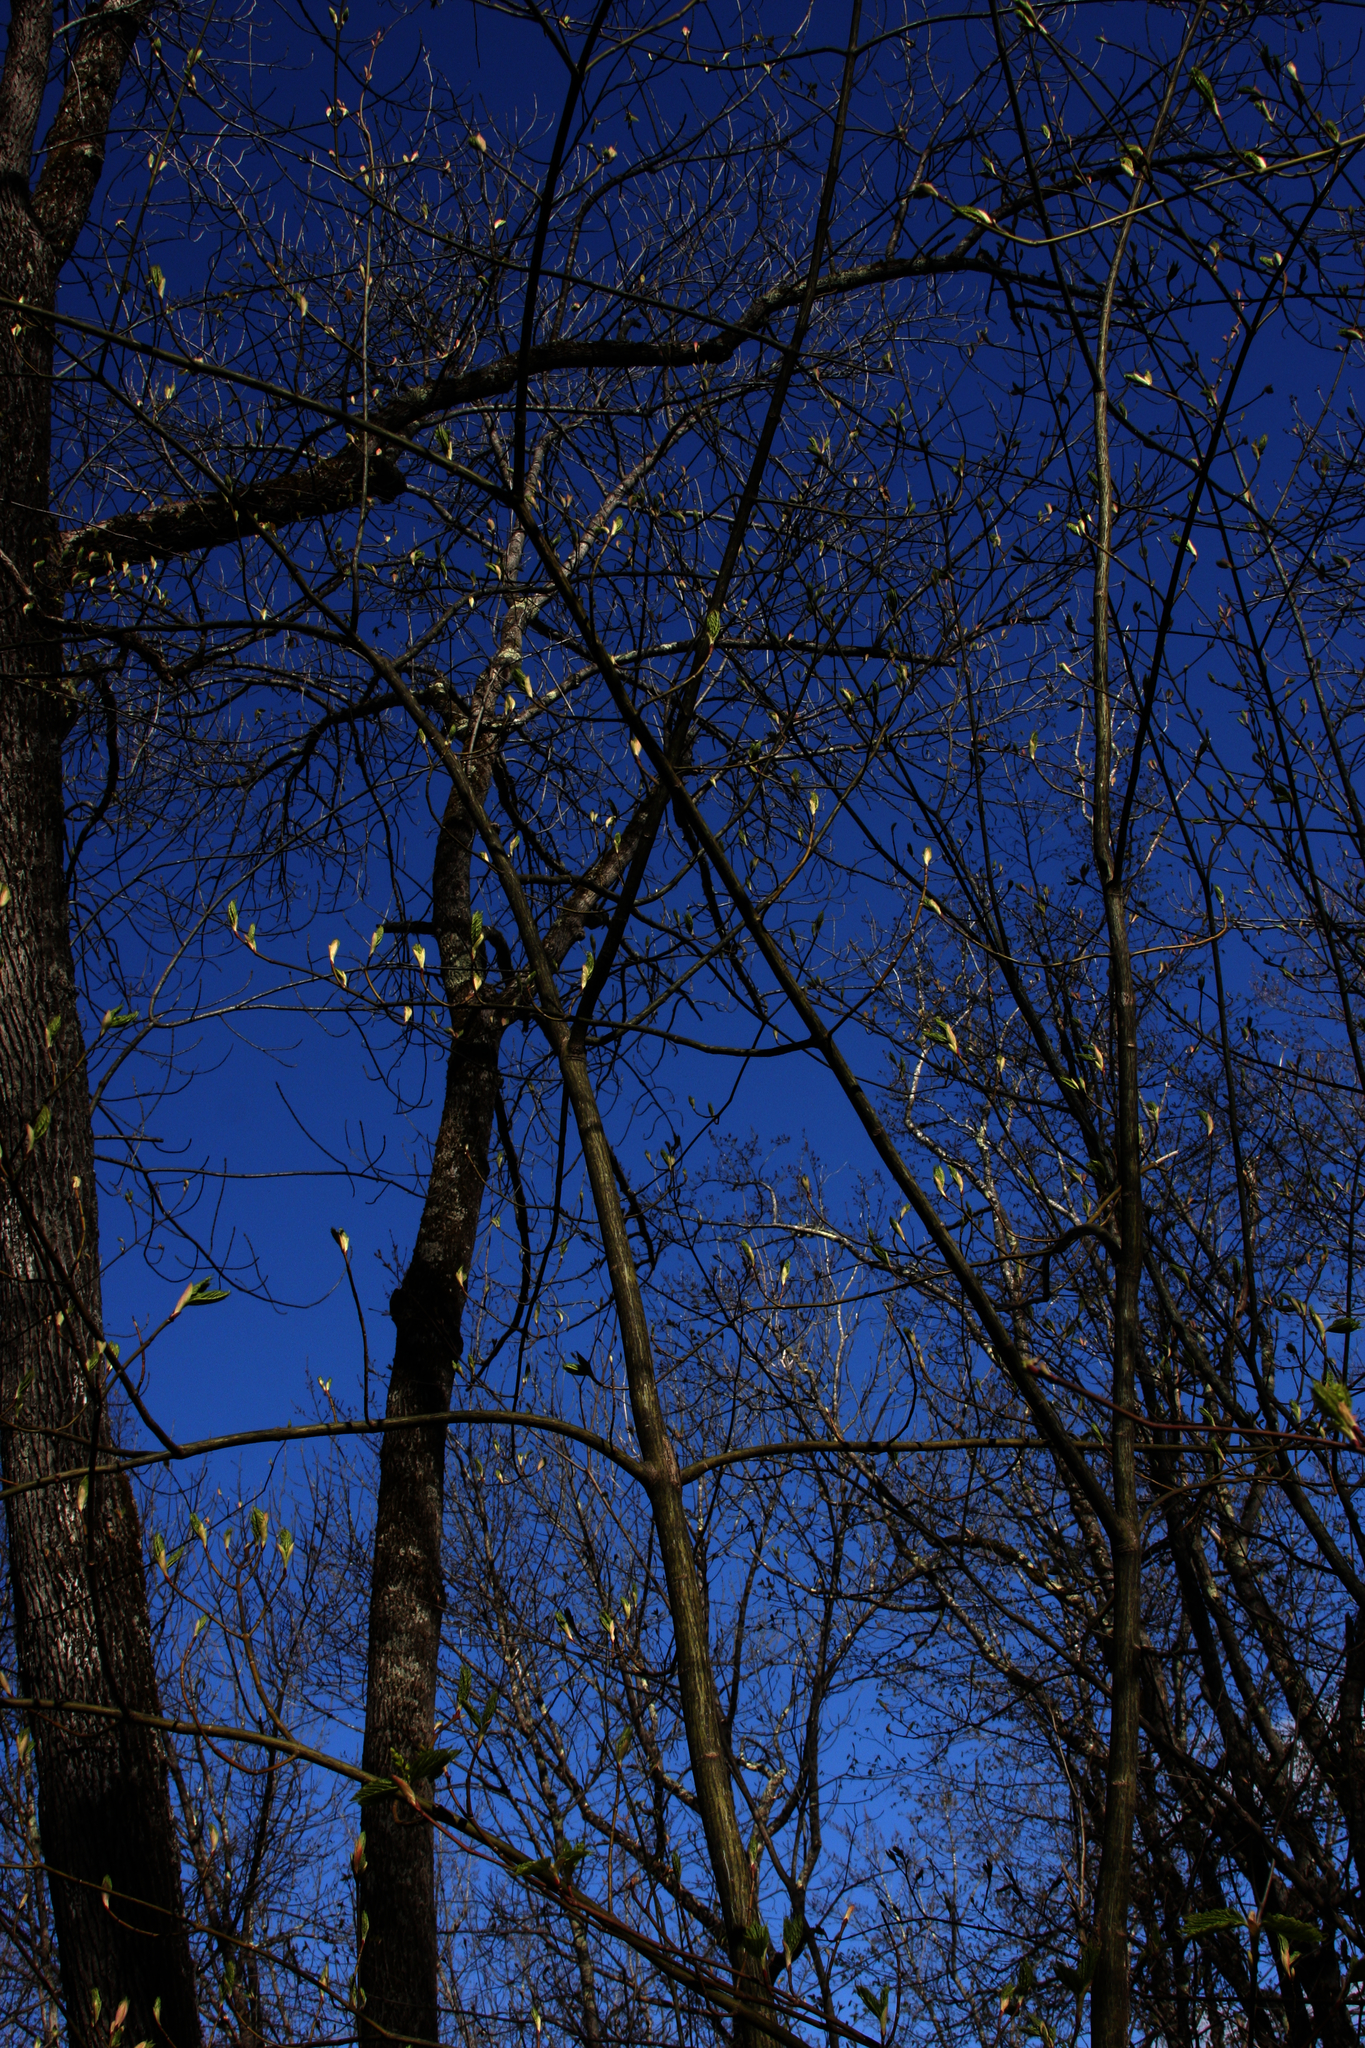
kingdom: Plantae
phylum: Tracheophyta
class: Magnoliopsida
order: Sapindales
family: Sapindaceae
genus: Acer
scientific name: Acer pensylvanicum
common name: Moosewood
